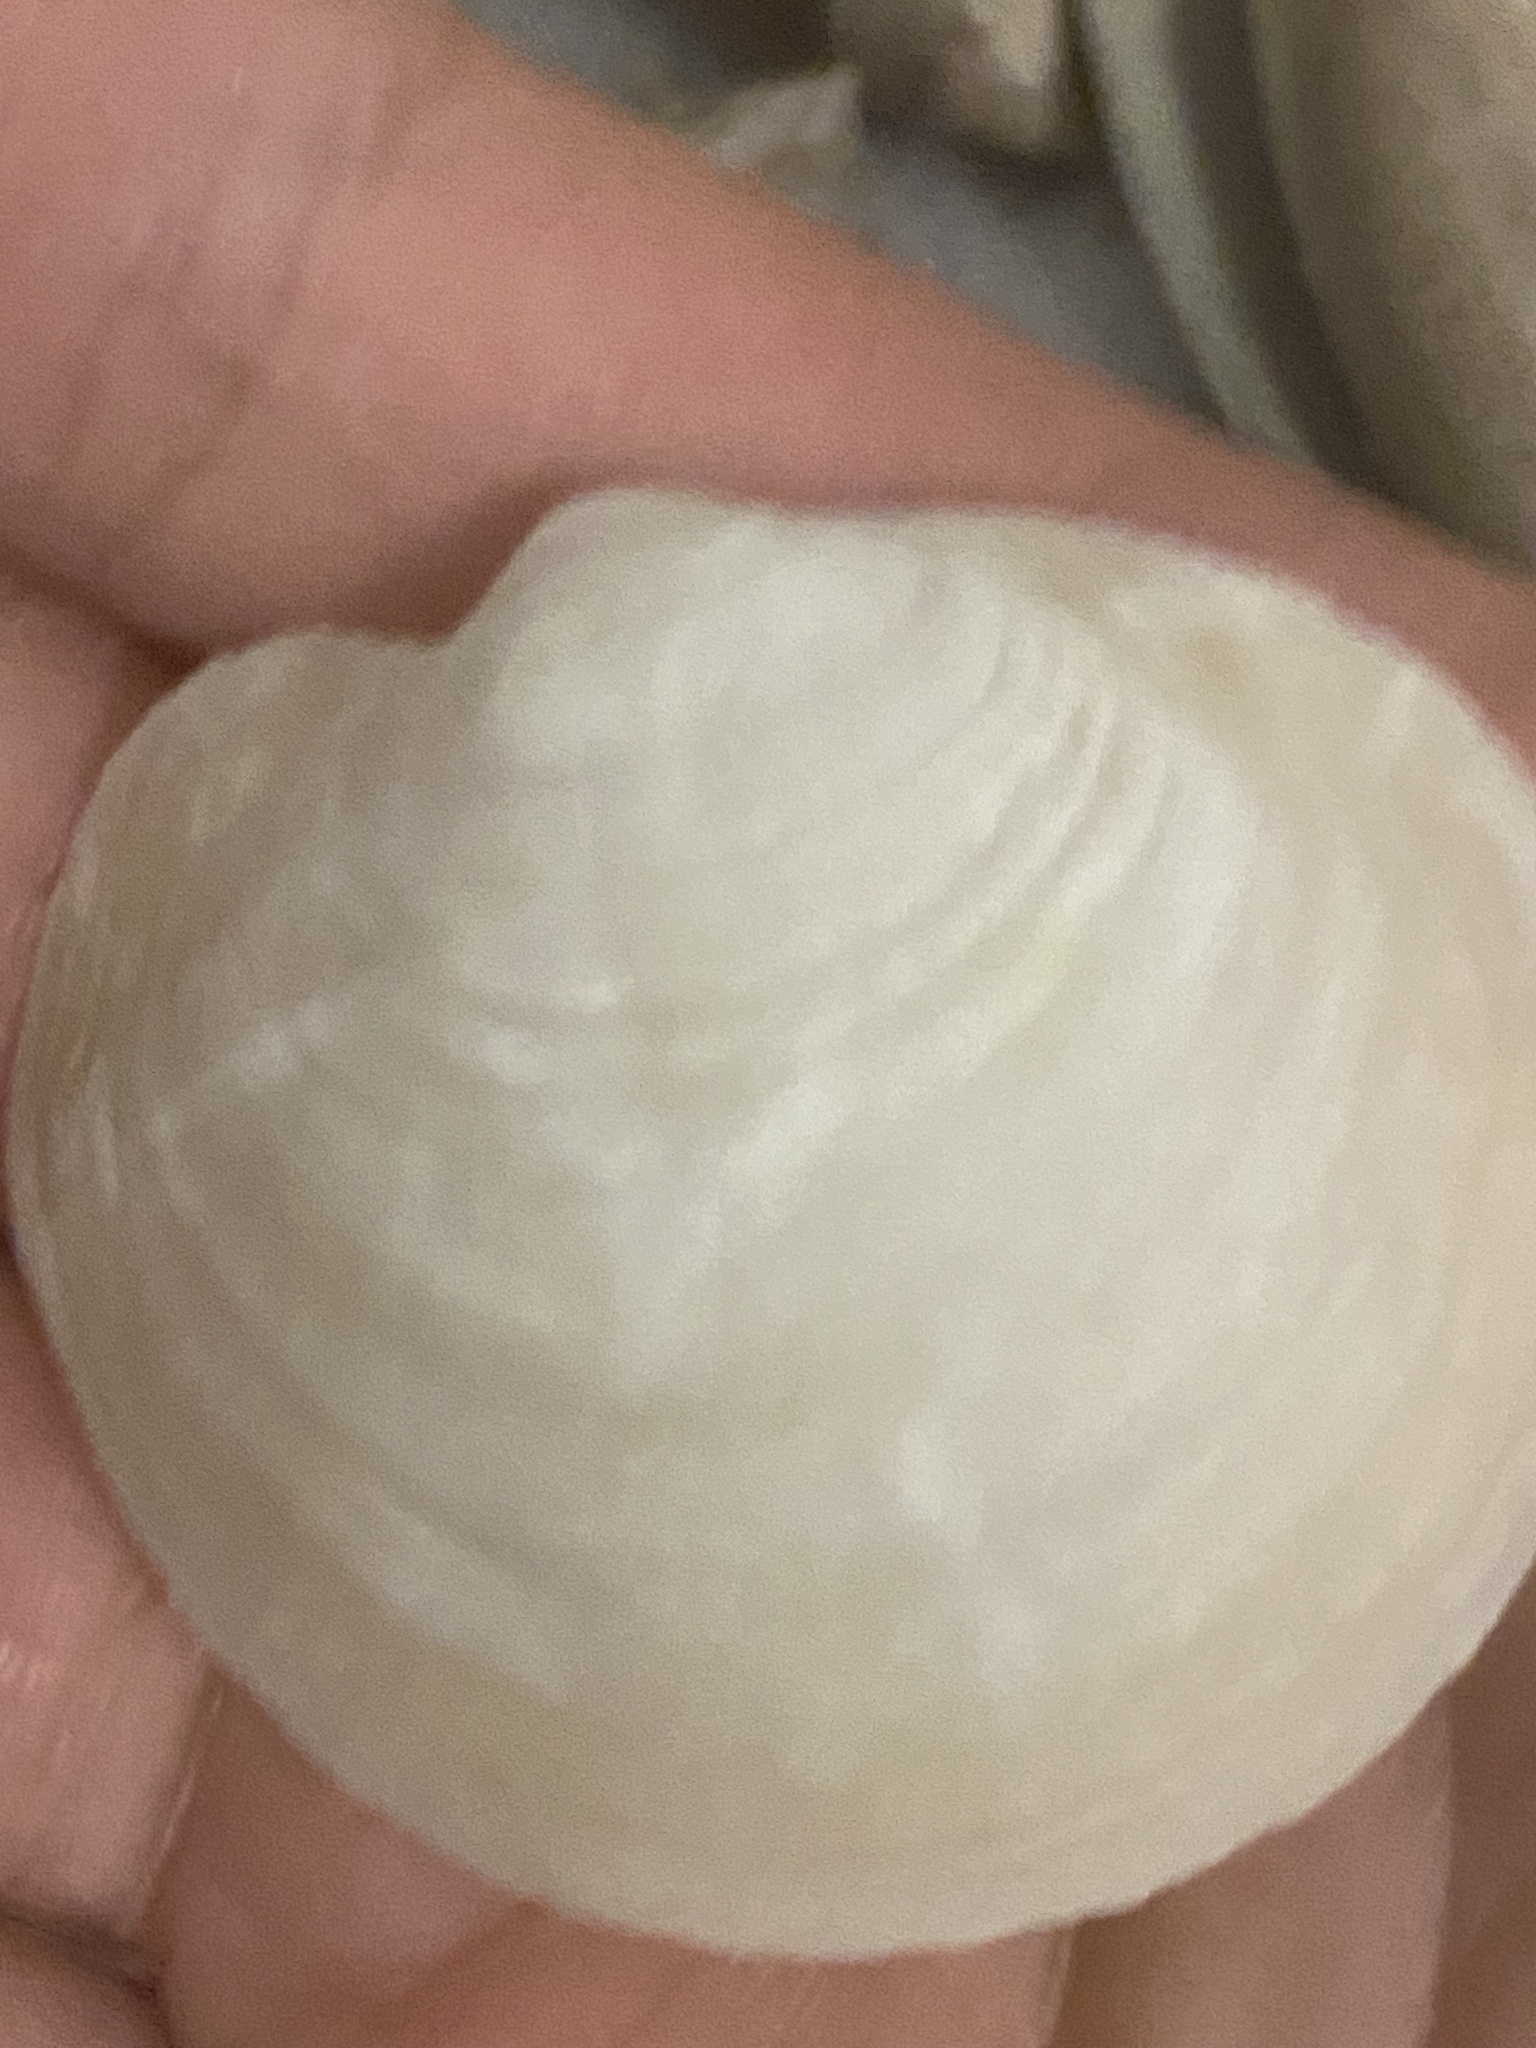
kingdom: Animalia
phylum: Mollusca
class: Bivalvia
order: Lucinida
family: Lucinidae
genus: Anodontia
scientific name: Anodontia alba
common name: Buttercup lucine
